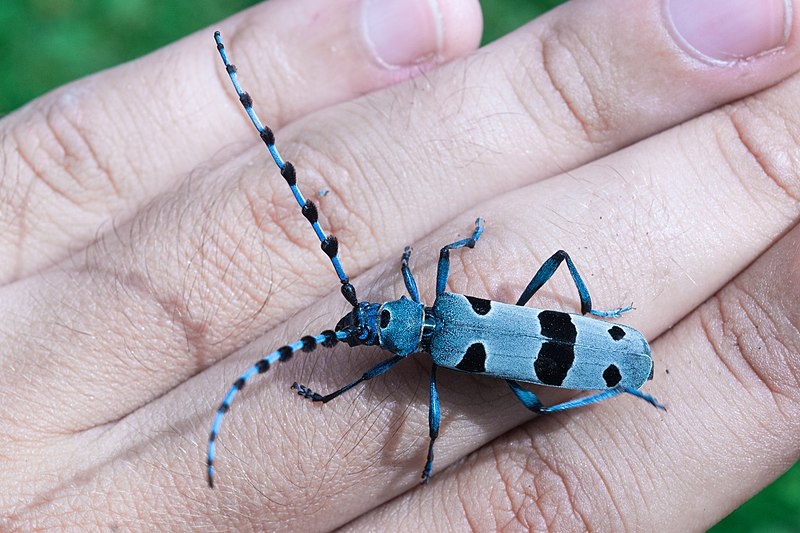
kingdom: Animalia
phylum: Arthropoda
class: Insecta
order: Coleoptera
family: Cerambycidae
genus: Rosalia
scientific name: Rosalia alpina
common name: Rosalia longicorn
